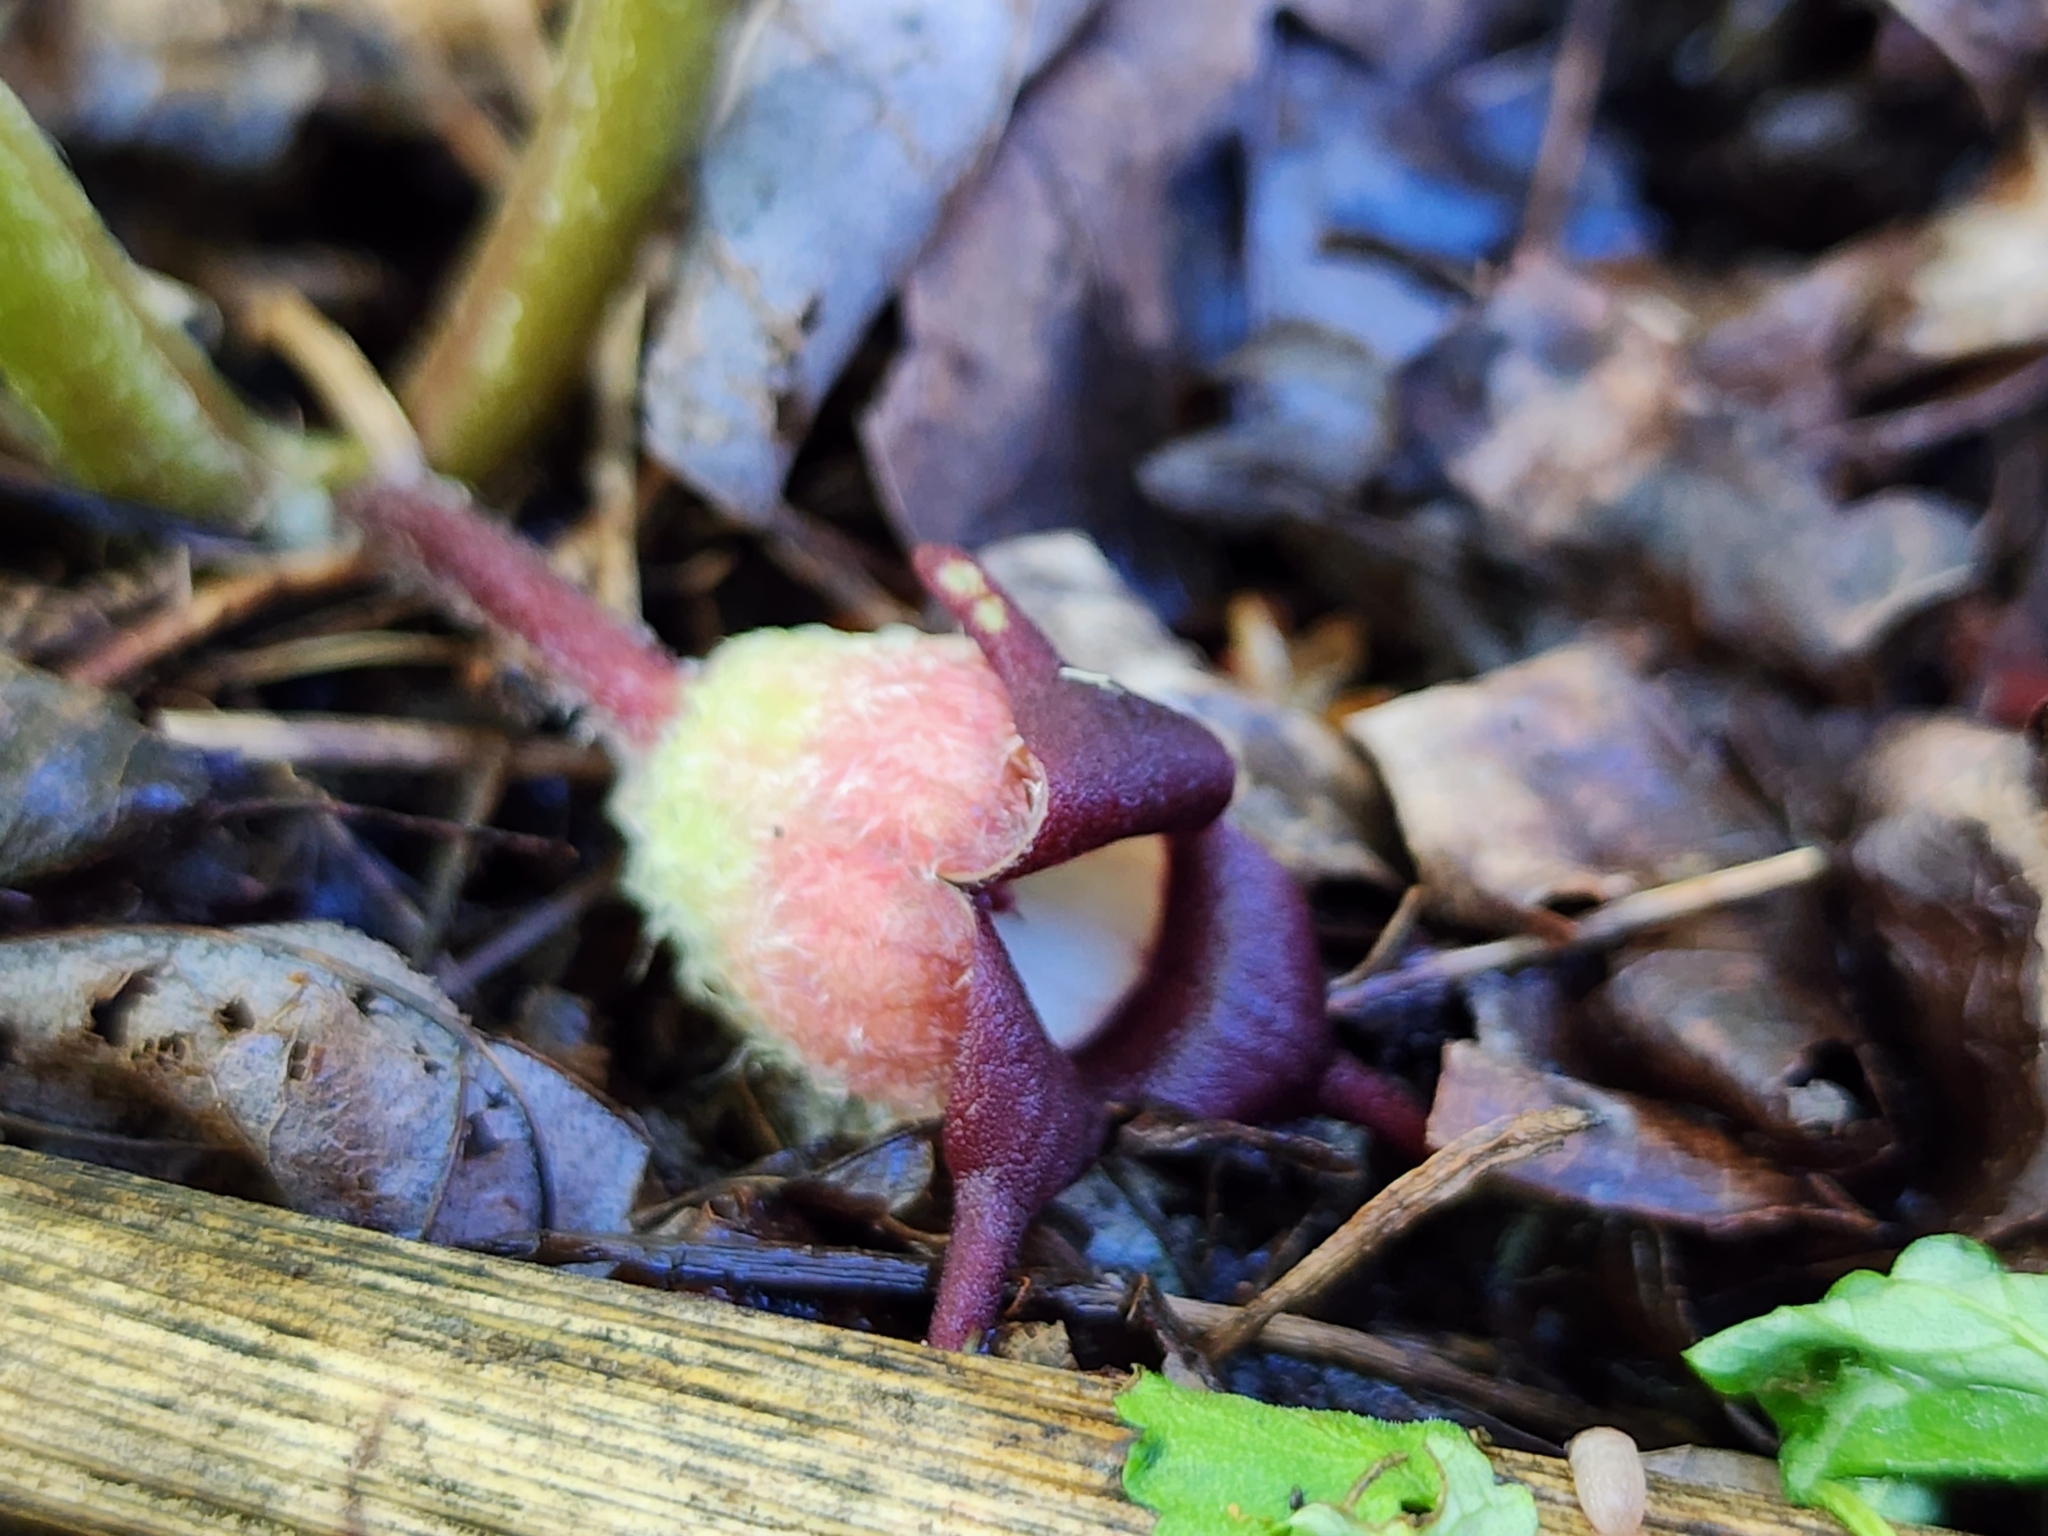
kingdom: Plantae
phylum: Tracheophyta
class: Magnoliopsida
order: Piperales
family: Aristolochiaceae
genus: Asarum
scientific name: Asarum canadense
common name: Wild ginger
